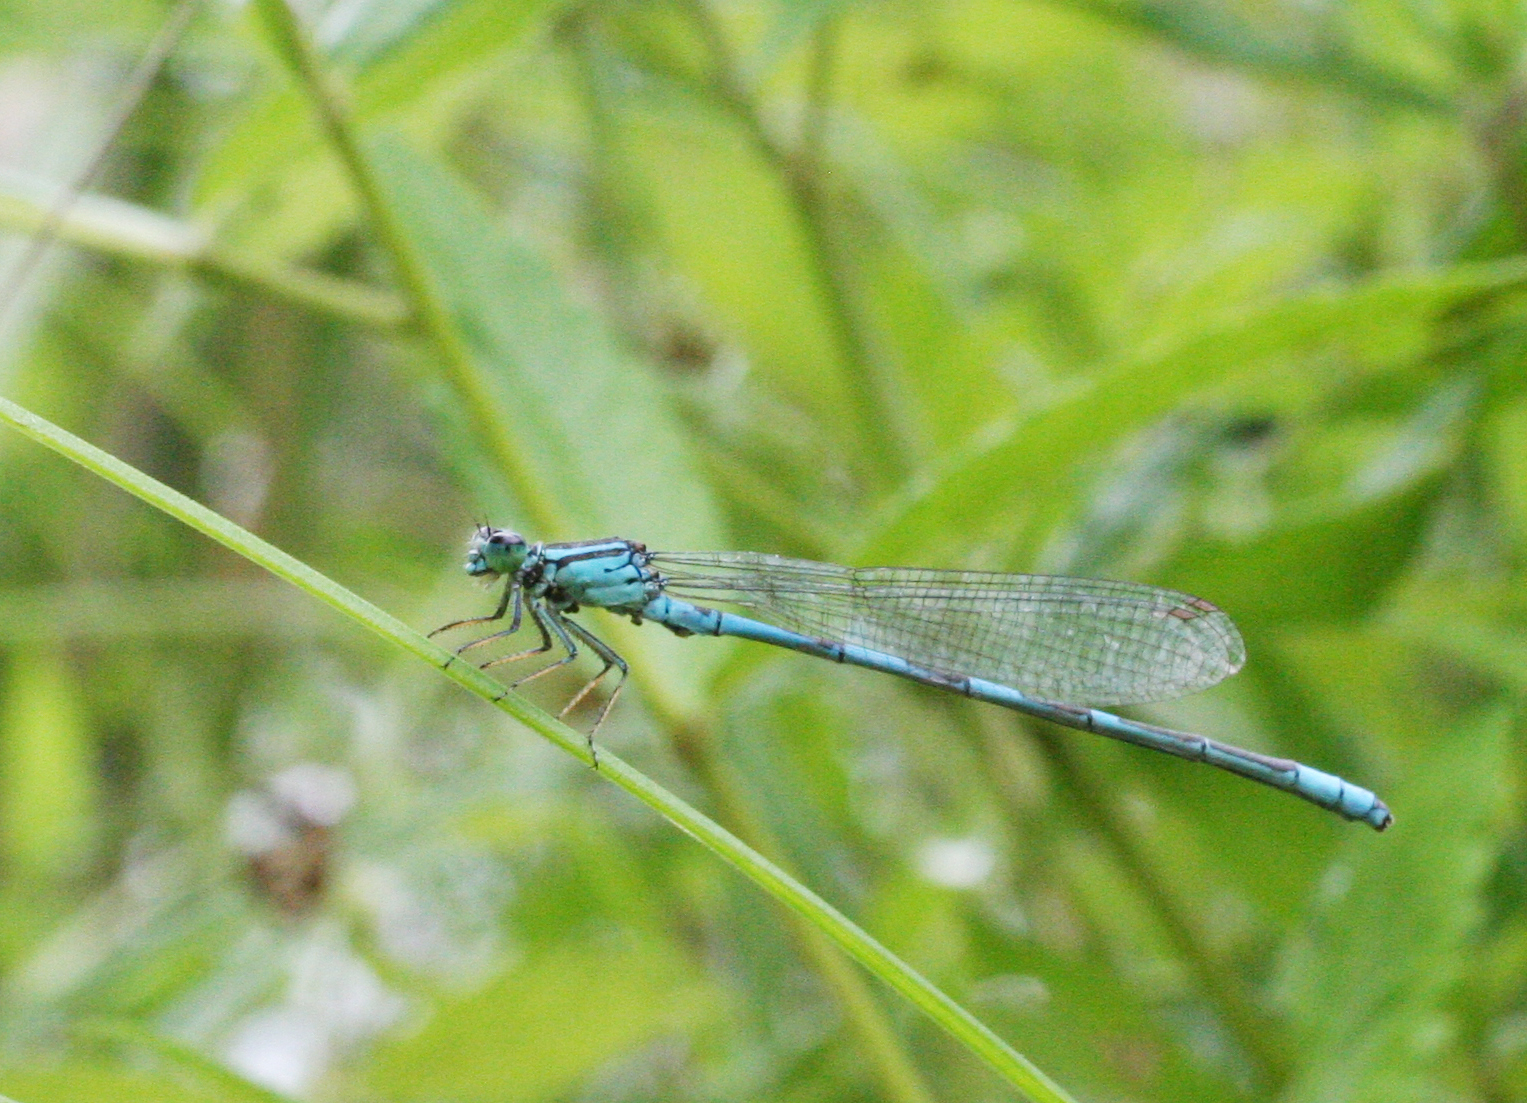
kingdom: Animalia
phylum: Arthropoda
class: Insecta
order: Odonata
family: Coenagrionidae
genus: Coenagrion
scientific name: Coenagrion lanceolatum
